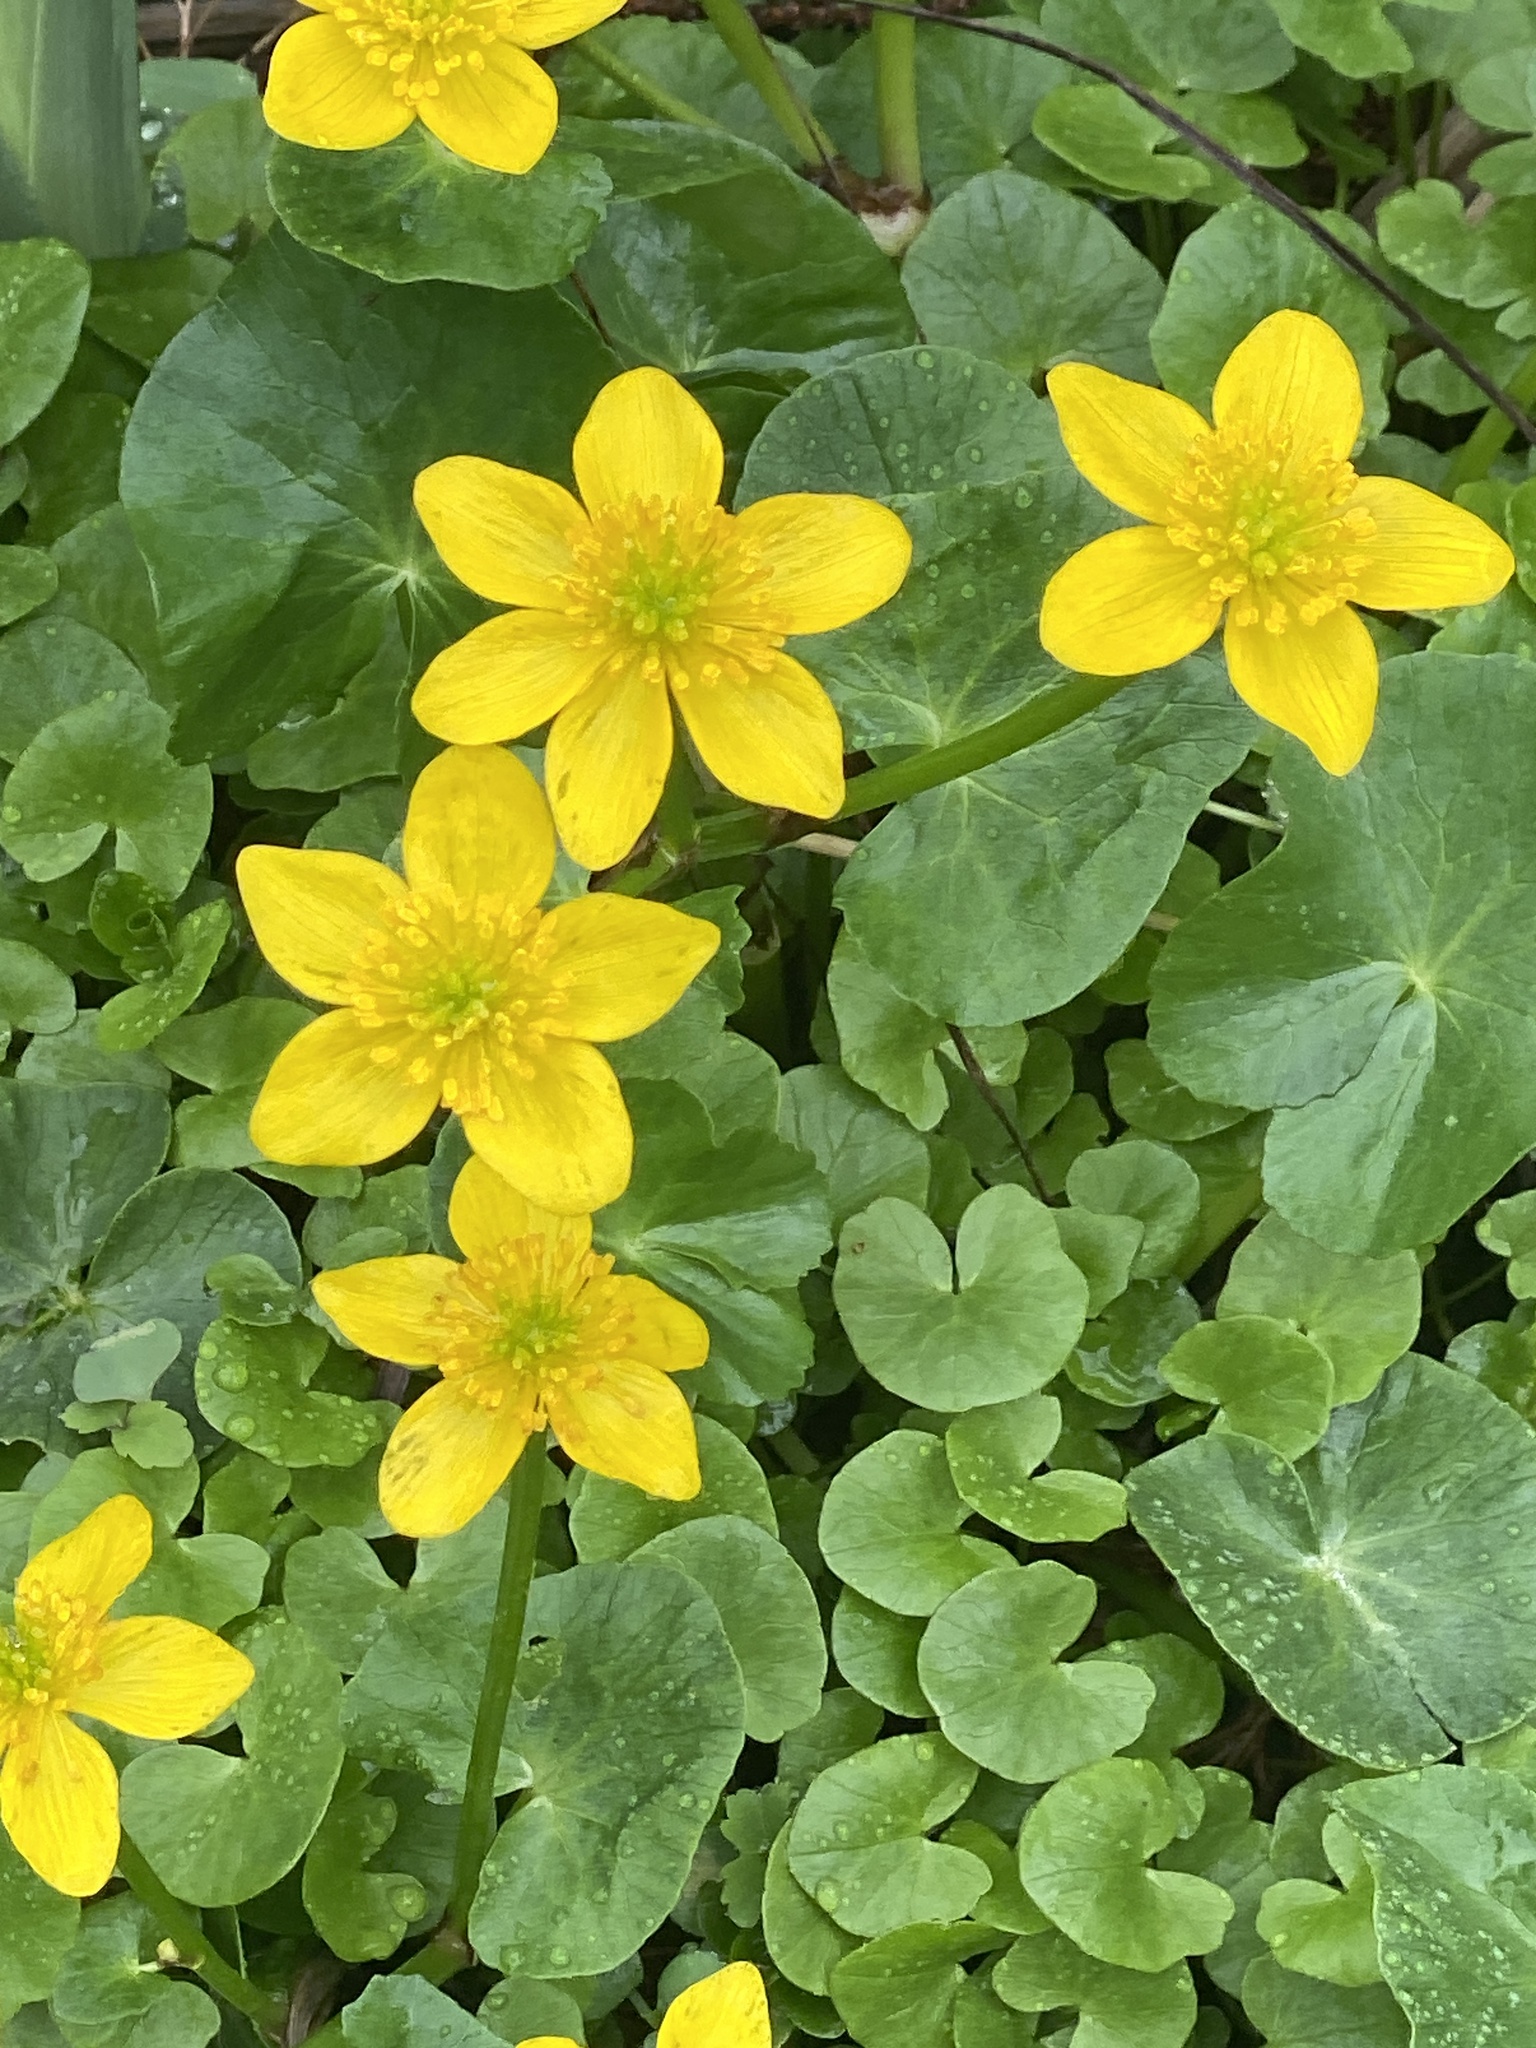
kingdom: Plantae
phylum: Tracheophyta
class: Magnoliopsida
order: Ranunculales
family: Ranunculaceae
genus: Caltha
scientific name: Caltha palustris
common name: Marsh marigold
